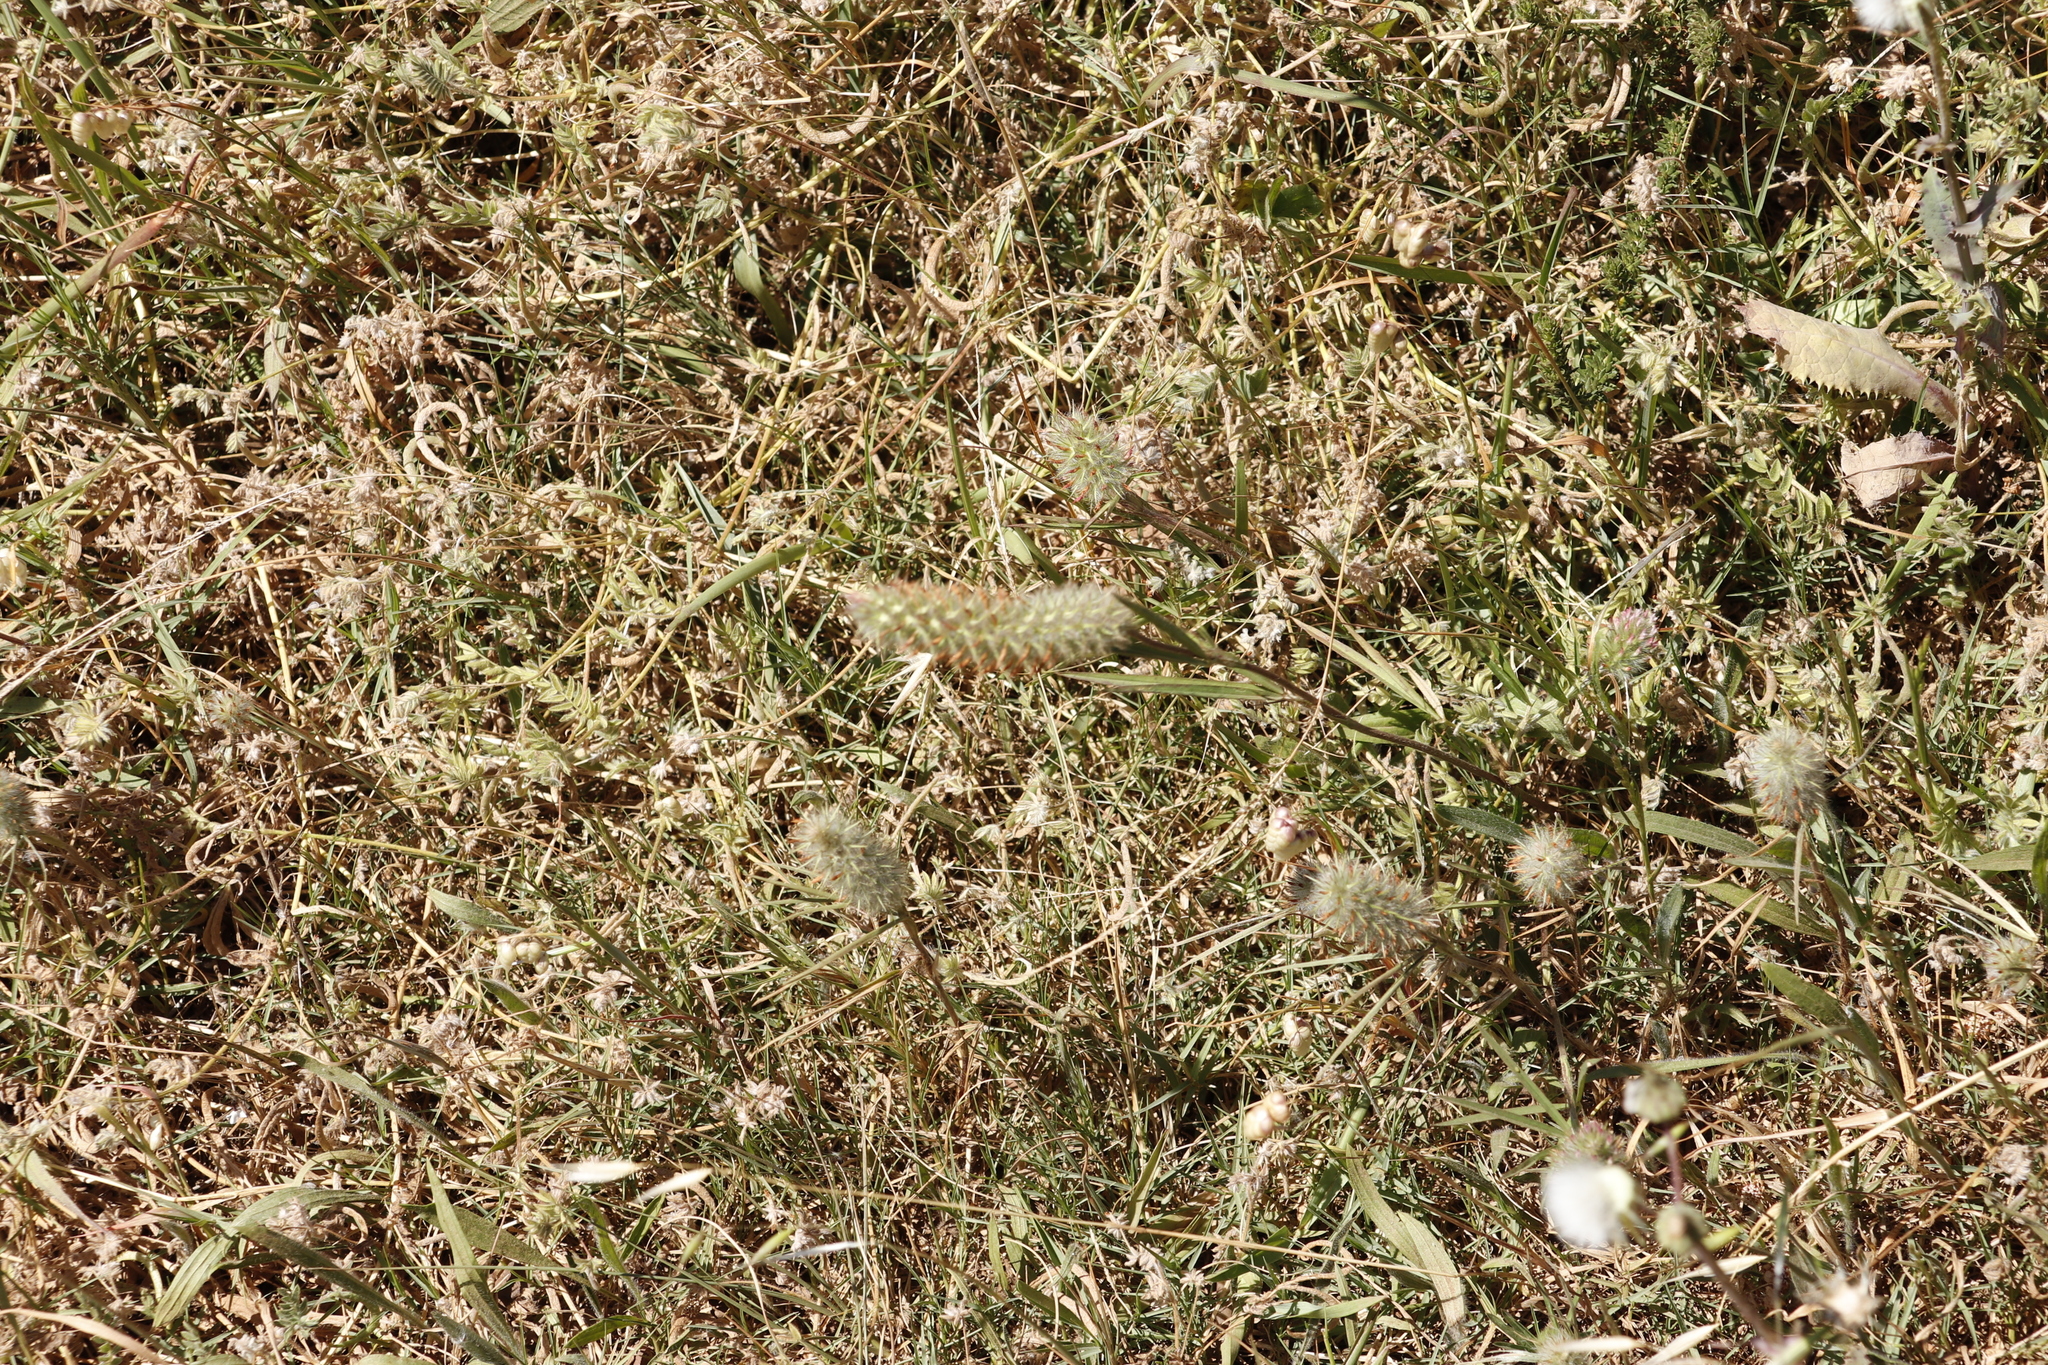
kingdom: Plantae
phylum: Tracheophyta
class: Magnoliopsida
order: Fabales
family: Fabaceae
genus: Trifolium
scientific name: Trifolium angustifolium
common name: Narrow clover
